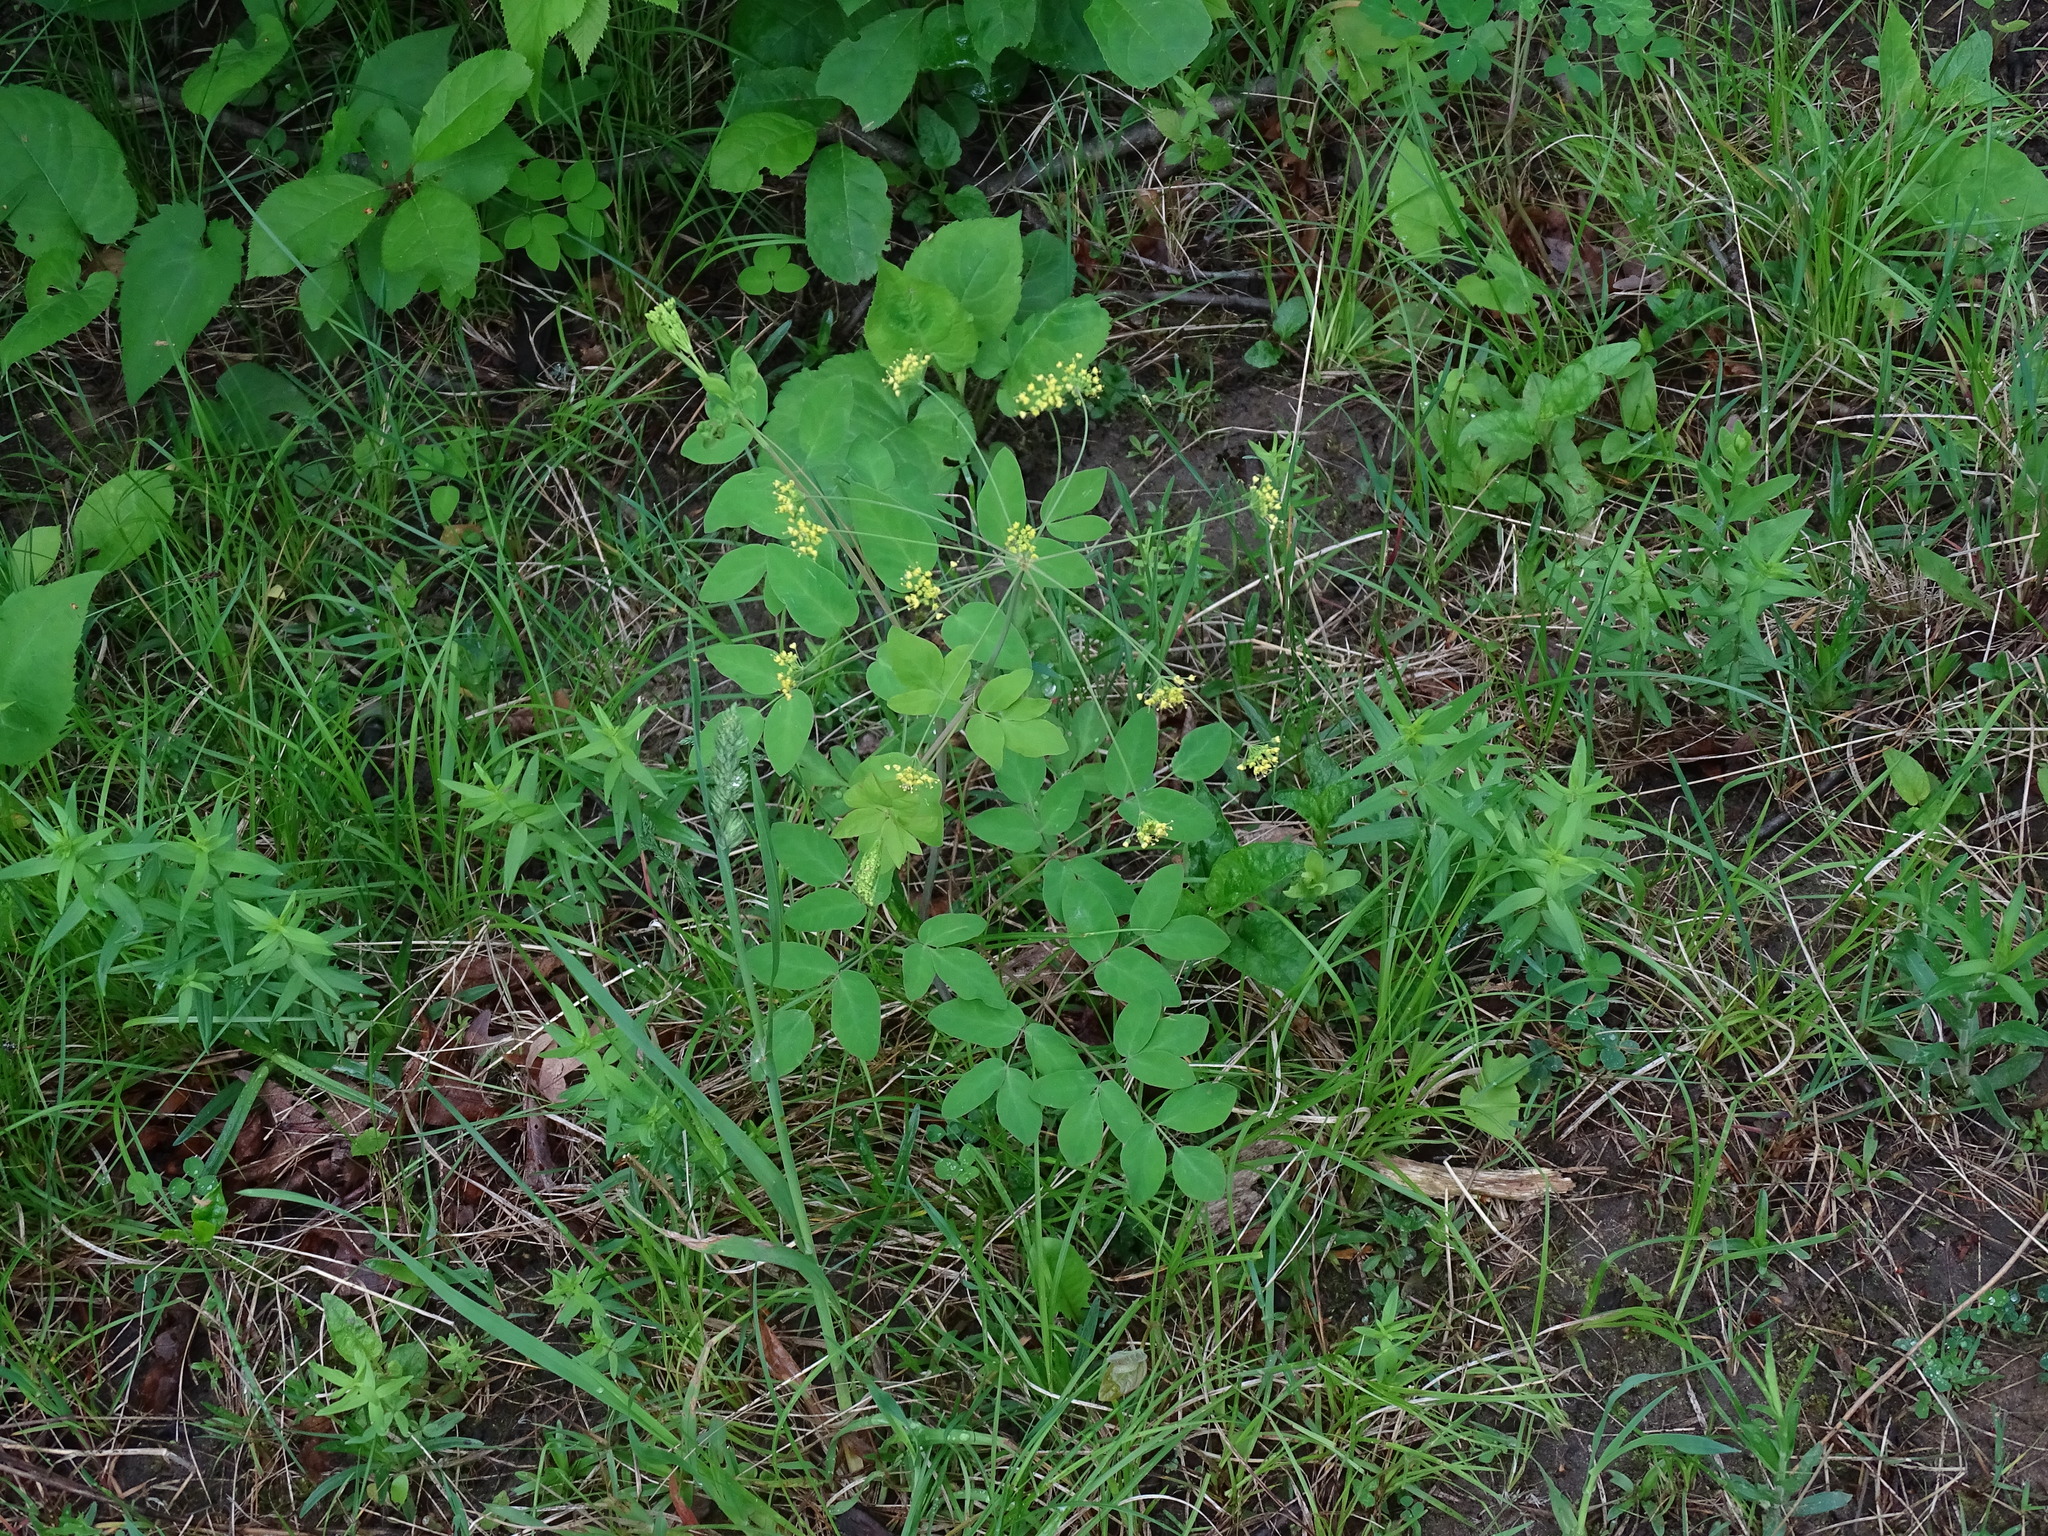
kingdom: Plantae
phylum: Tracheophyta
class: Magnoliopsida
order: Apiales
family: Apiaceae
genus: Taenidia
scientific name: Taenidia integerrima
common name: Golden alexander
